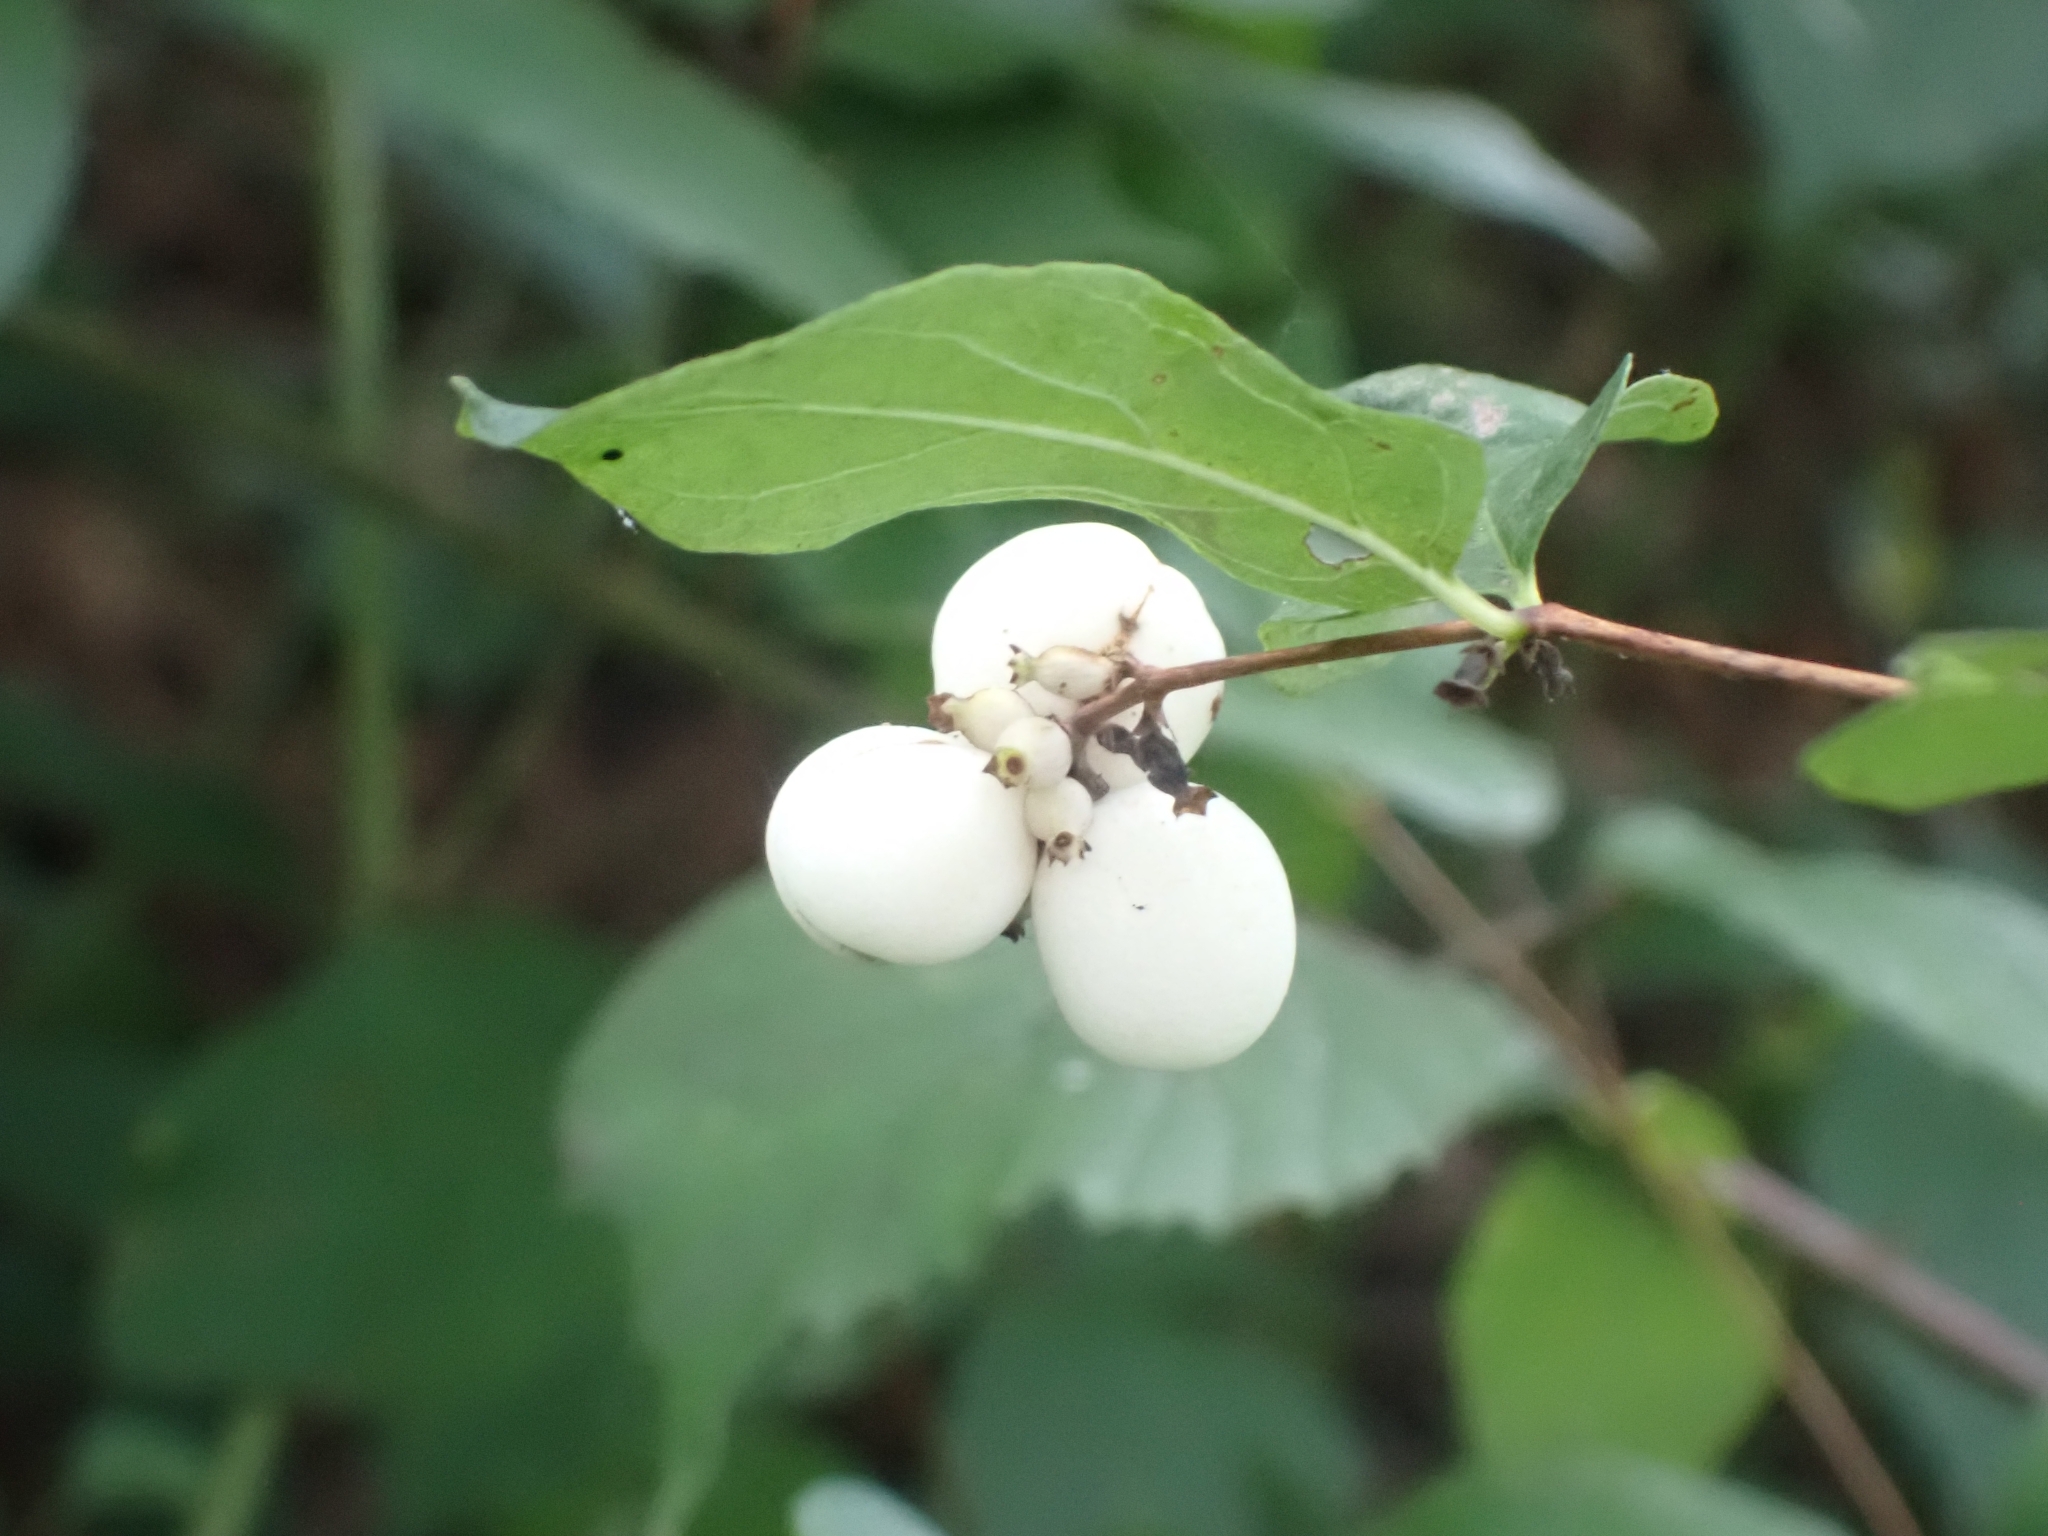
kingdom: Plantae
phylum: Tracheophyta
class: Magnoliopsida
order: Dipsacales
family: Caprifoliaceae
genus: Symphoricarpos
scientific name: Symphoricarpos albus
